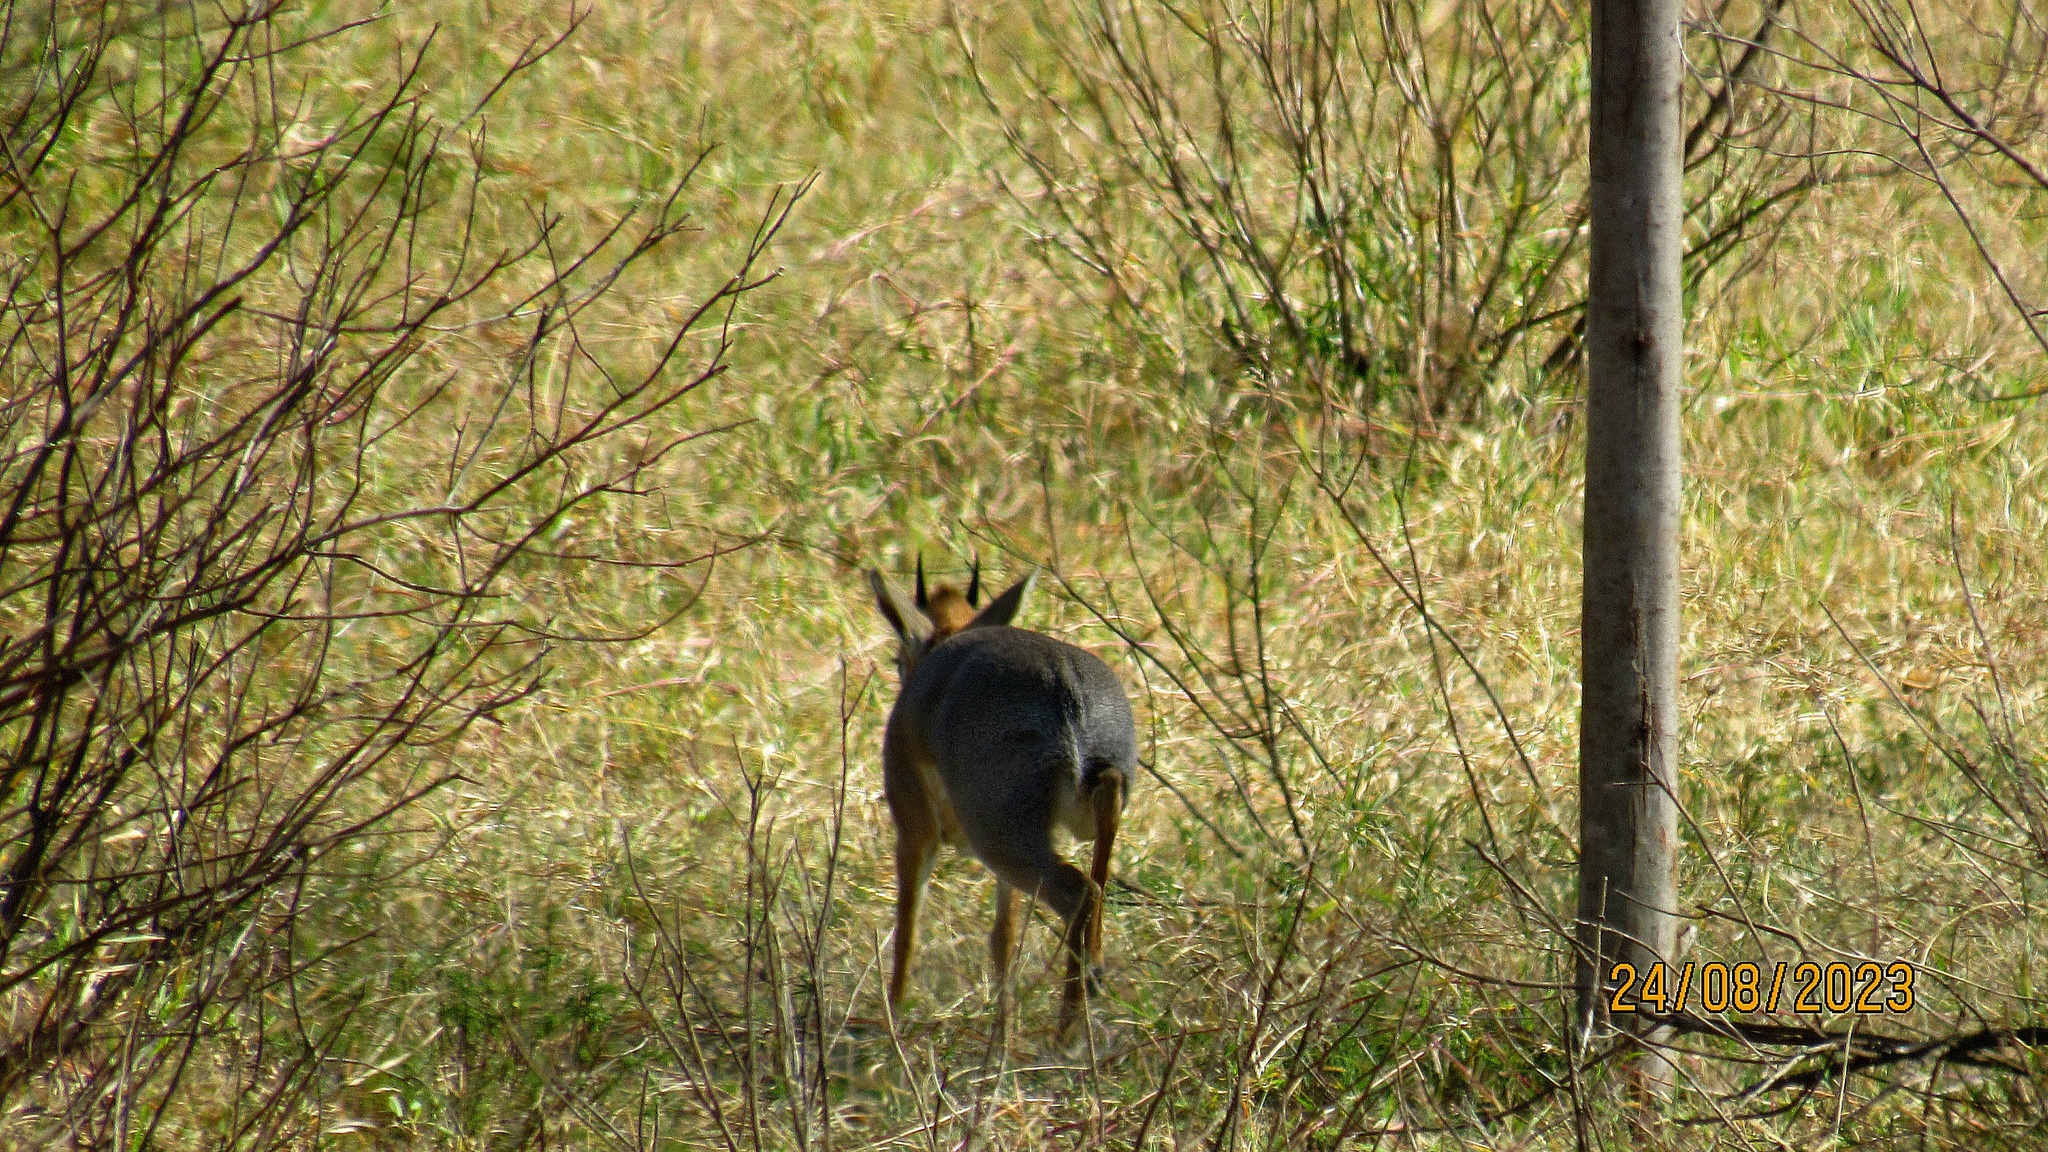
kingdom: Animalia
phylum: Chordata
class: Mammalia
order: Artiodactyla
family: Bovidae
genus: Madoqua
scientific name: Madoqua kirkii
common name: Kirk's dik-dik
